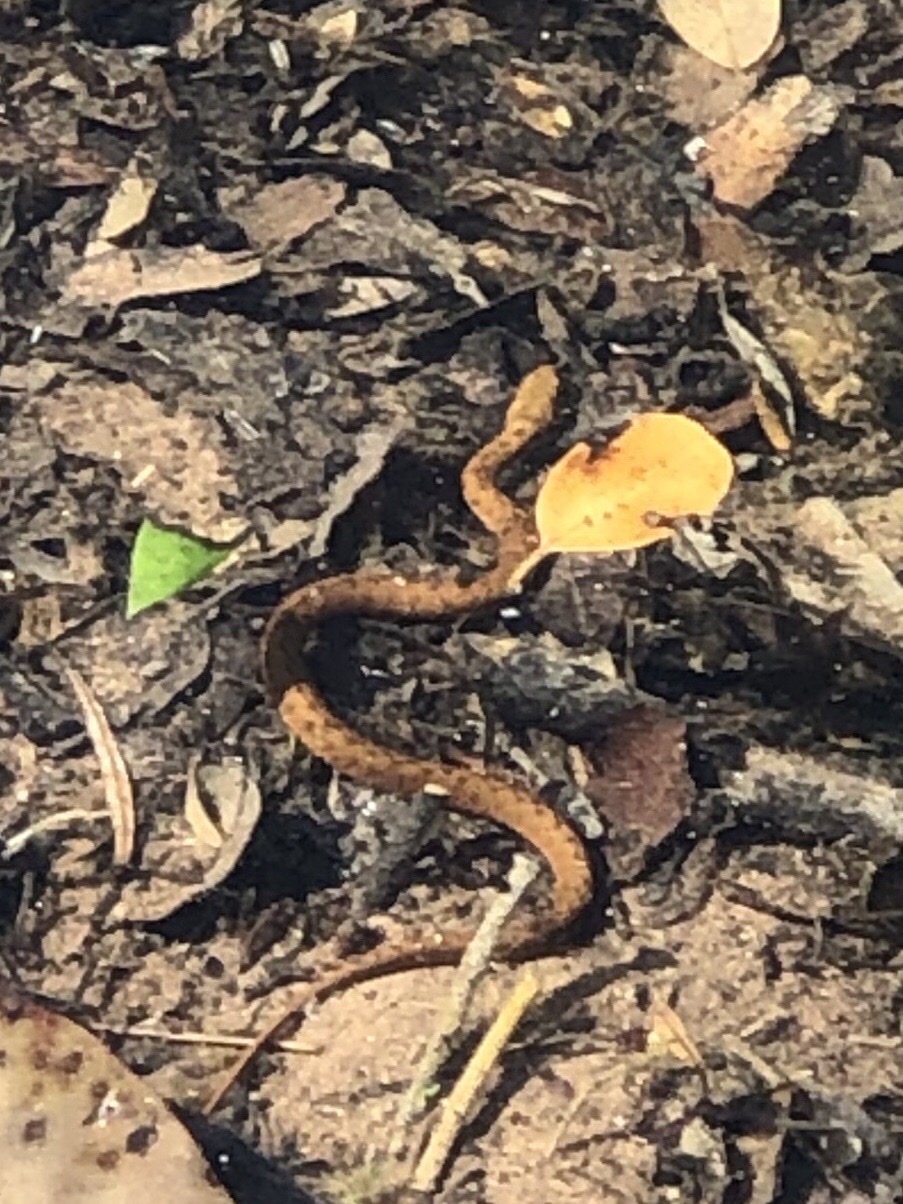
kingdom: Animalia
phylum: Chordata
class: Squamata
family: Colubridae
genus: Natrix
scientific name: Natrix maura
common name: Viperine water snake
